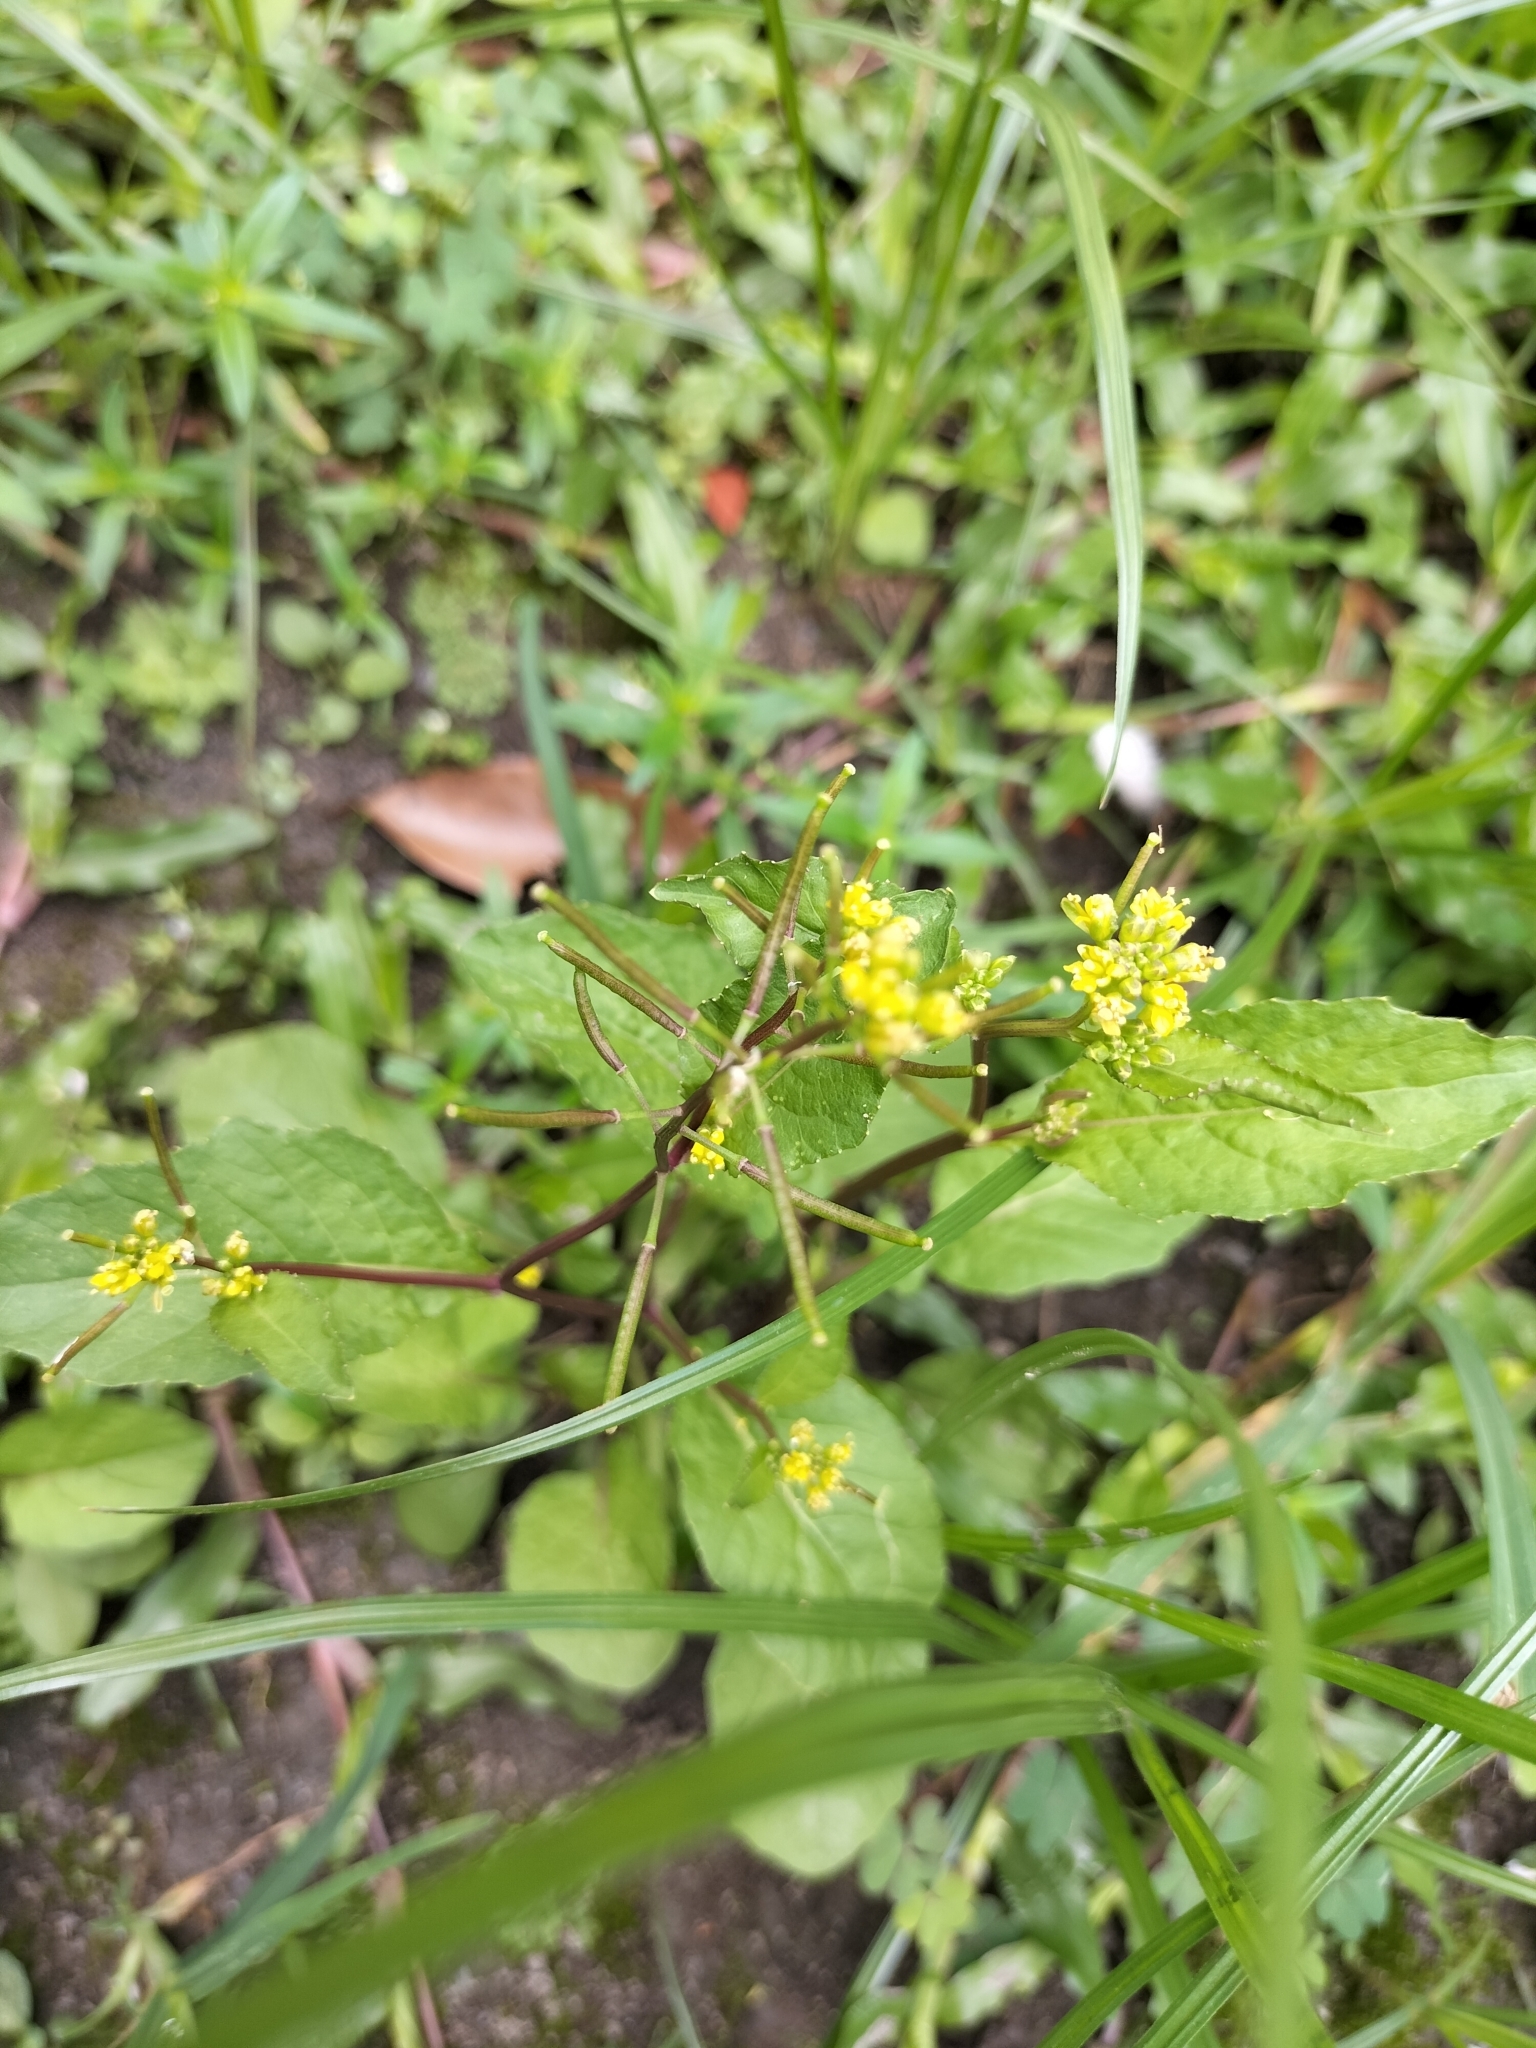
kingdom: Plantae
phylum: Tracheophyta
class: Magnoliopsida
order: Brassicales
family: Brassicaceae
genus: Rorippa
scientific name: Rorippa indica
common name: Variableleaf yellowcress
